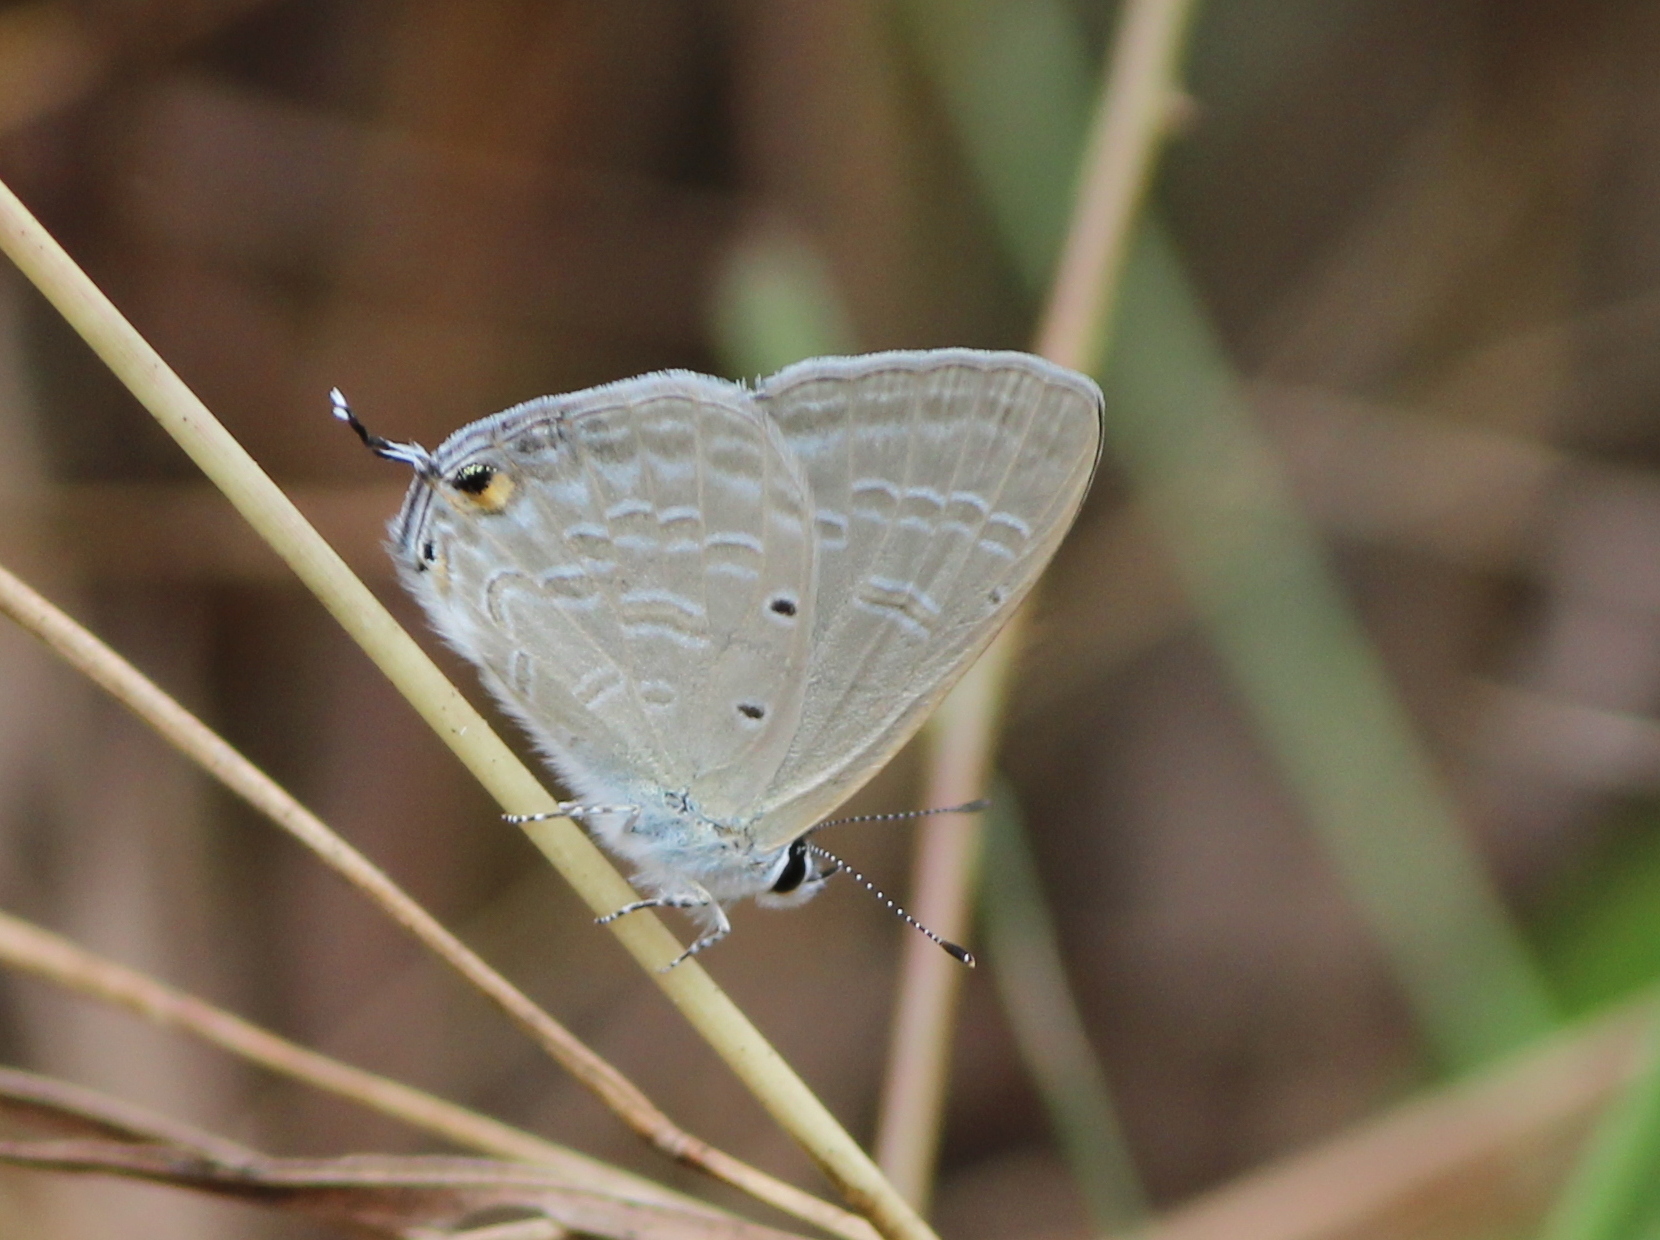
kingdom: Animalia
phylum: Arthropoda
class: Insecta
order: Lepidoptera
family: Lycaenidae
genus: Catochrysops
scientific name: Catochrysops strabo
